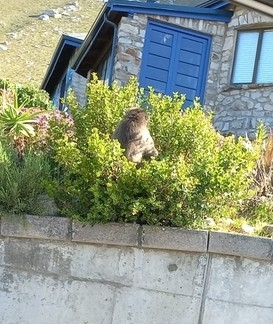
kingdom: Animalia
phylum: Chordata
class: Mammalia
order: Primates
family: Cercopithecidae
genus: Papio
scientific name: Papio ursinus
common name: Chacma baboon
